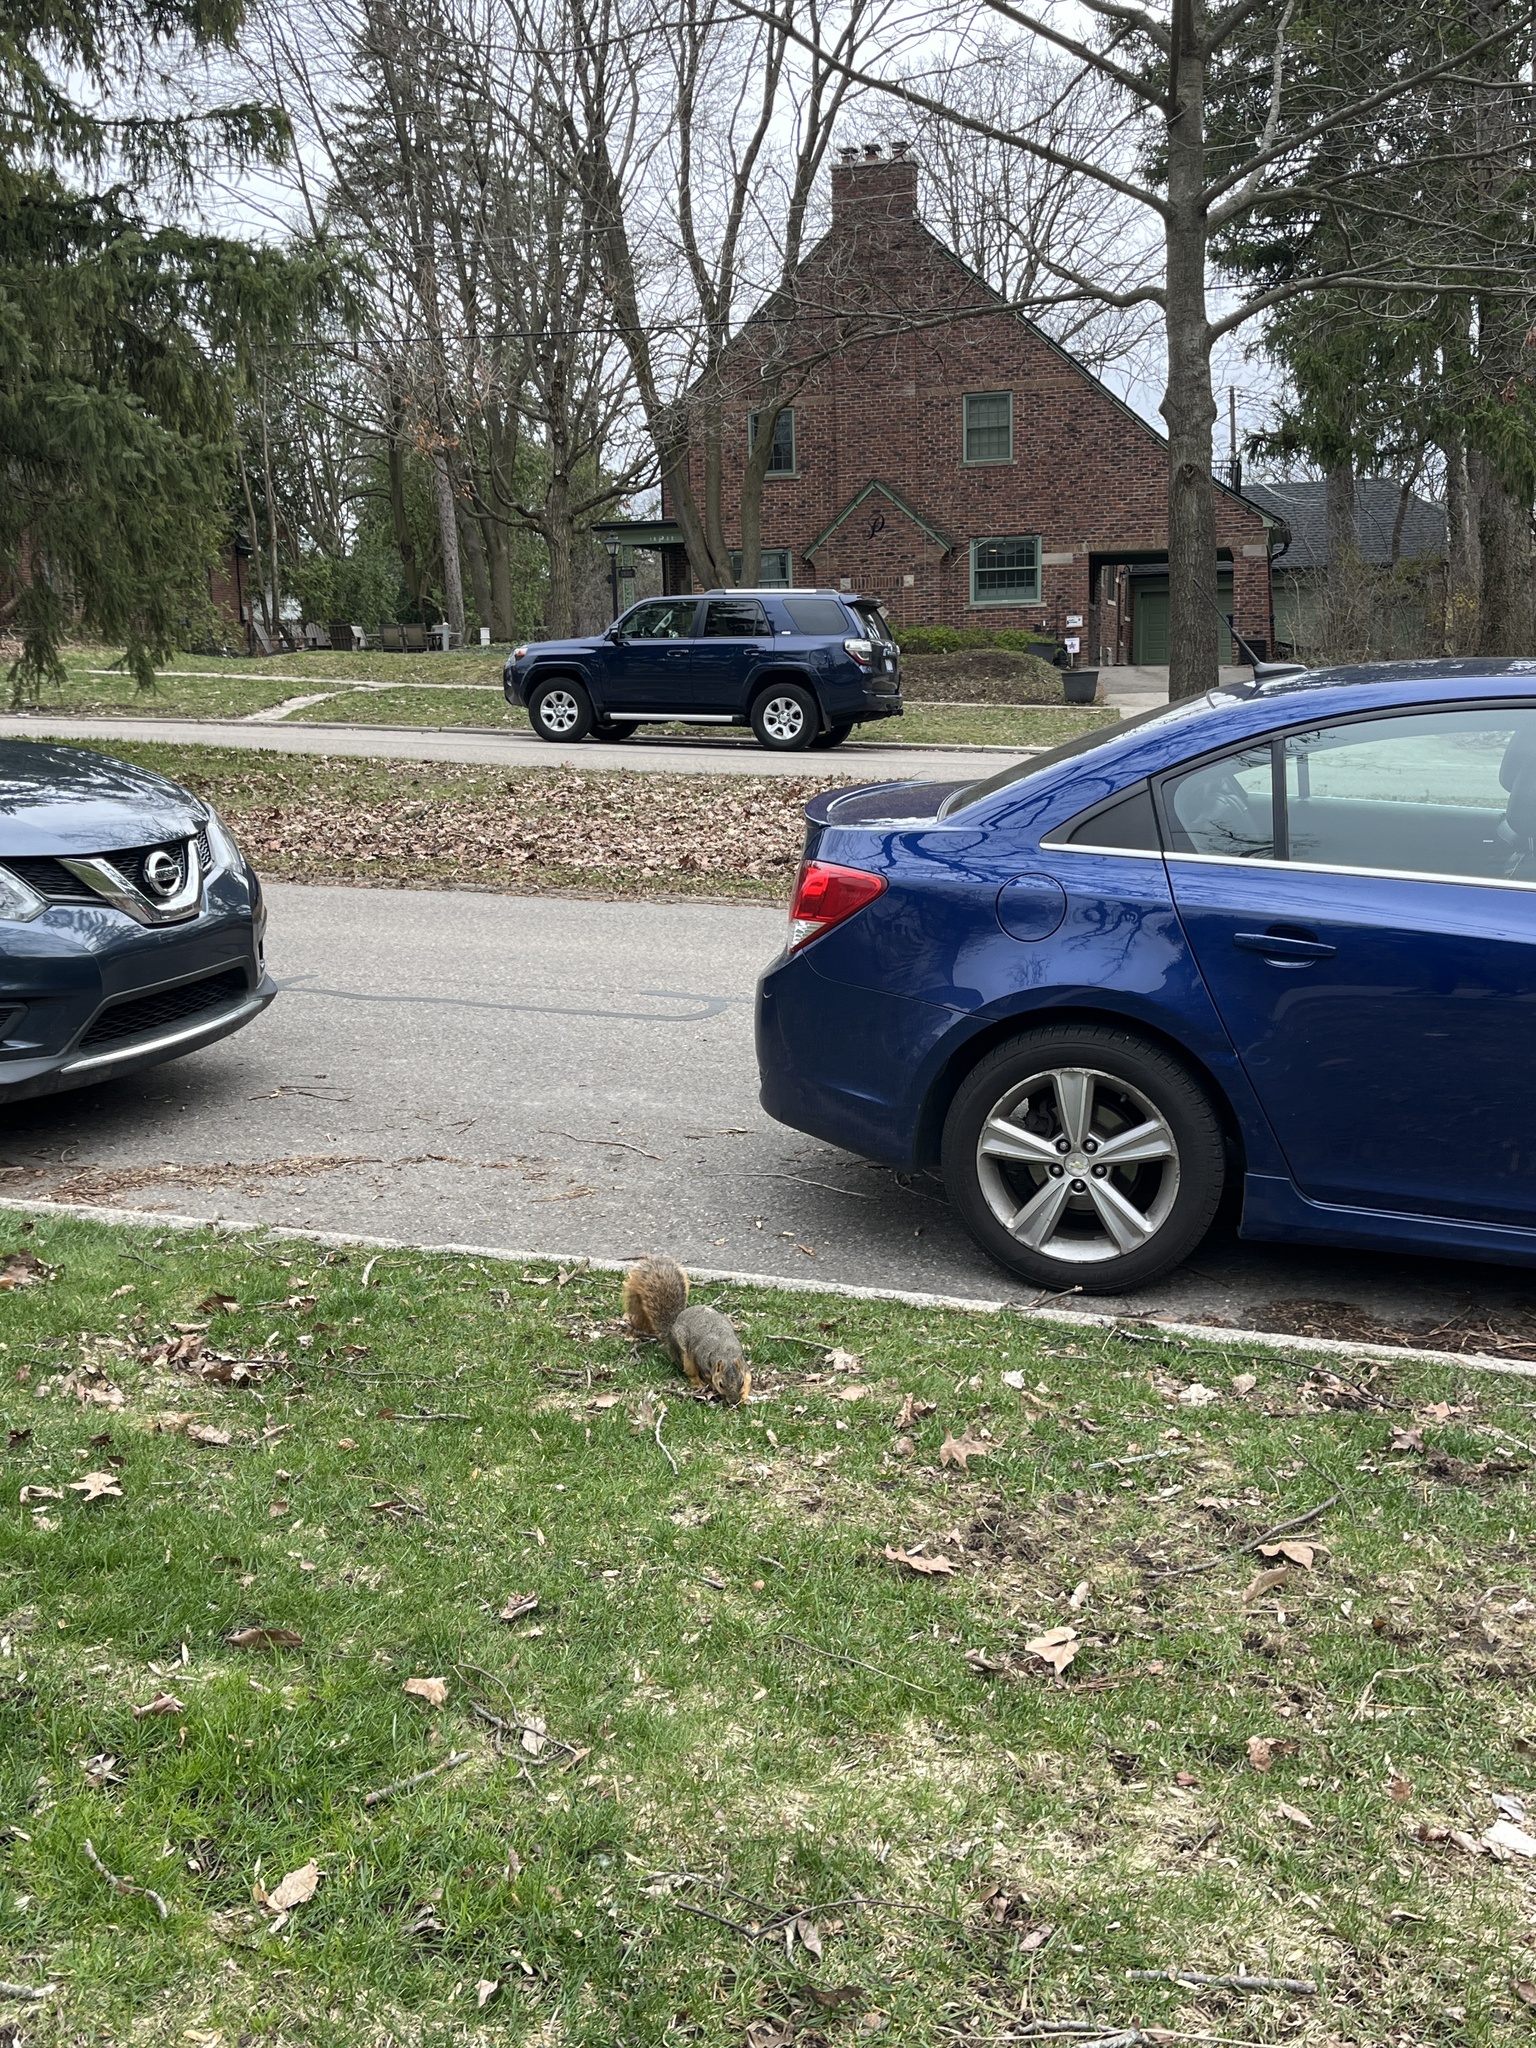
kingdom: Animalia
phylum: Chordata
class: Mammalia
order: Rodentia
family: Sciuridae
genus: Sciurus
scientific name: Sciurus niger
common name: Fox squirrel
